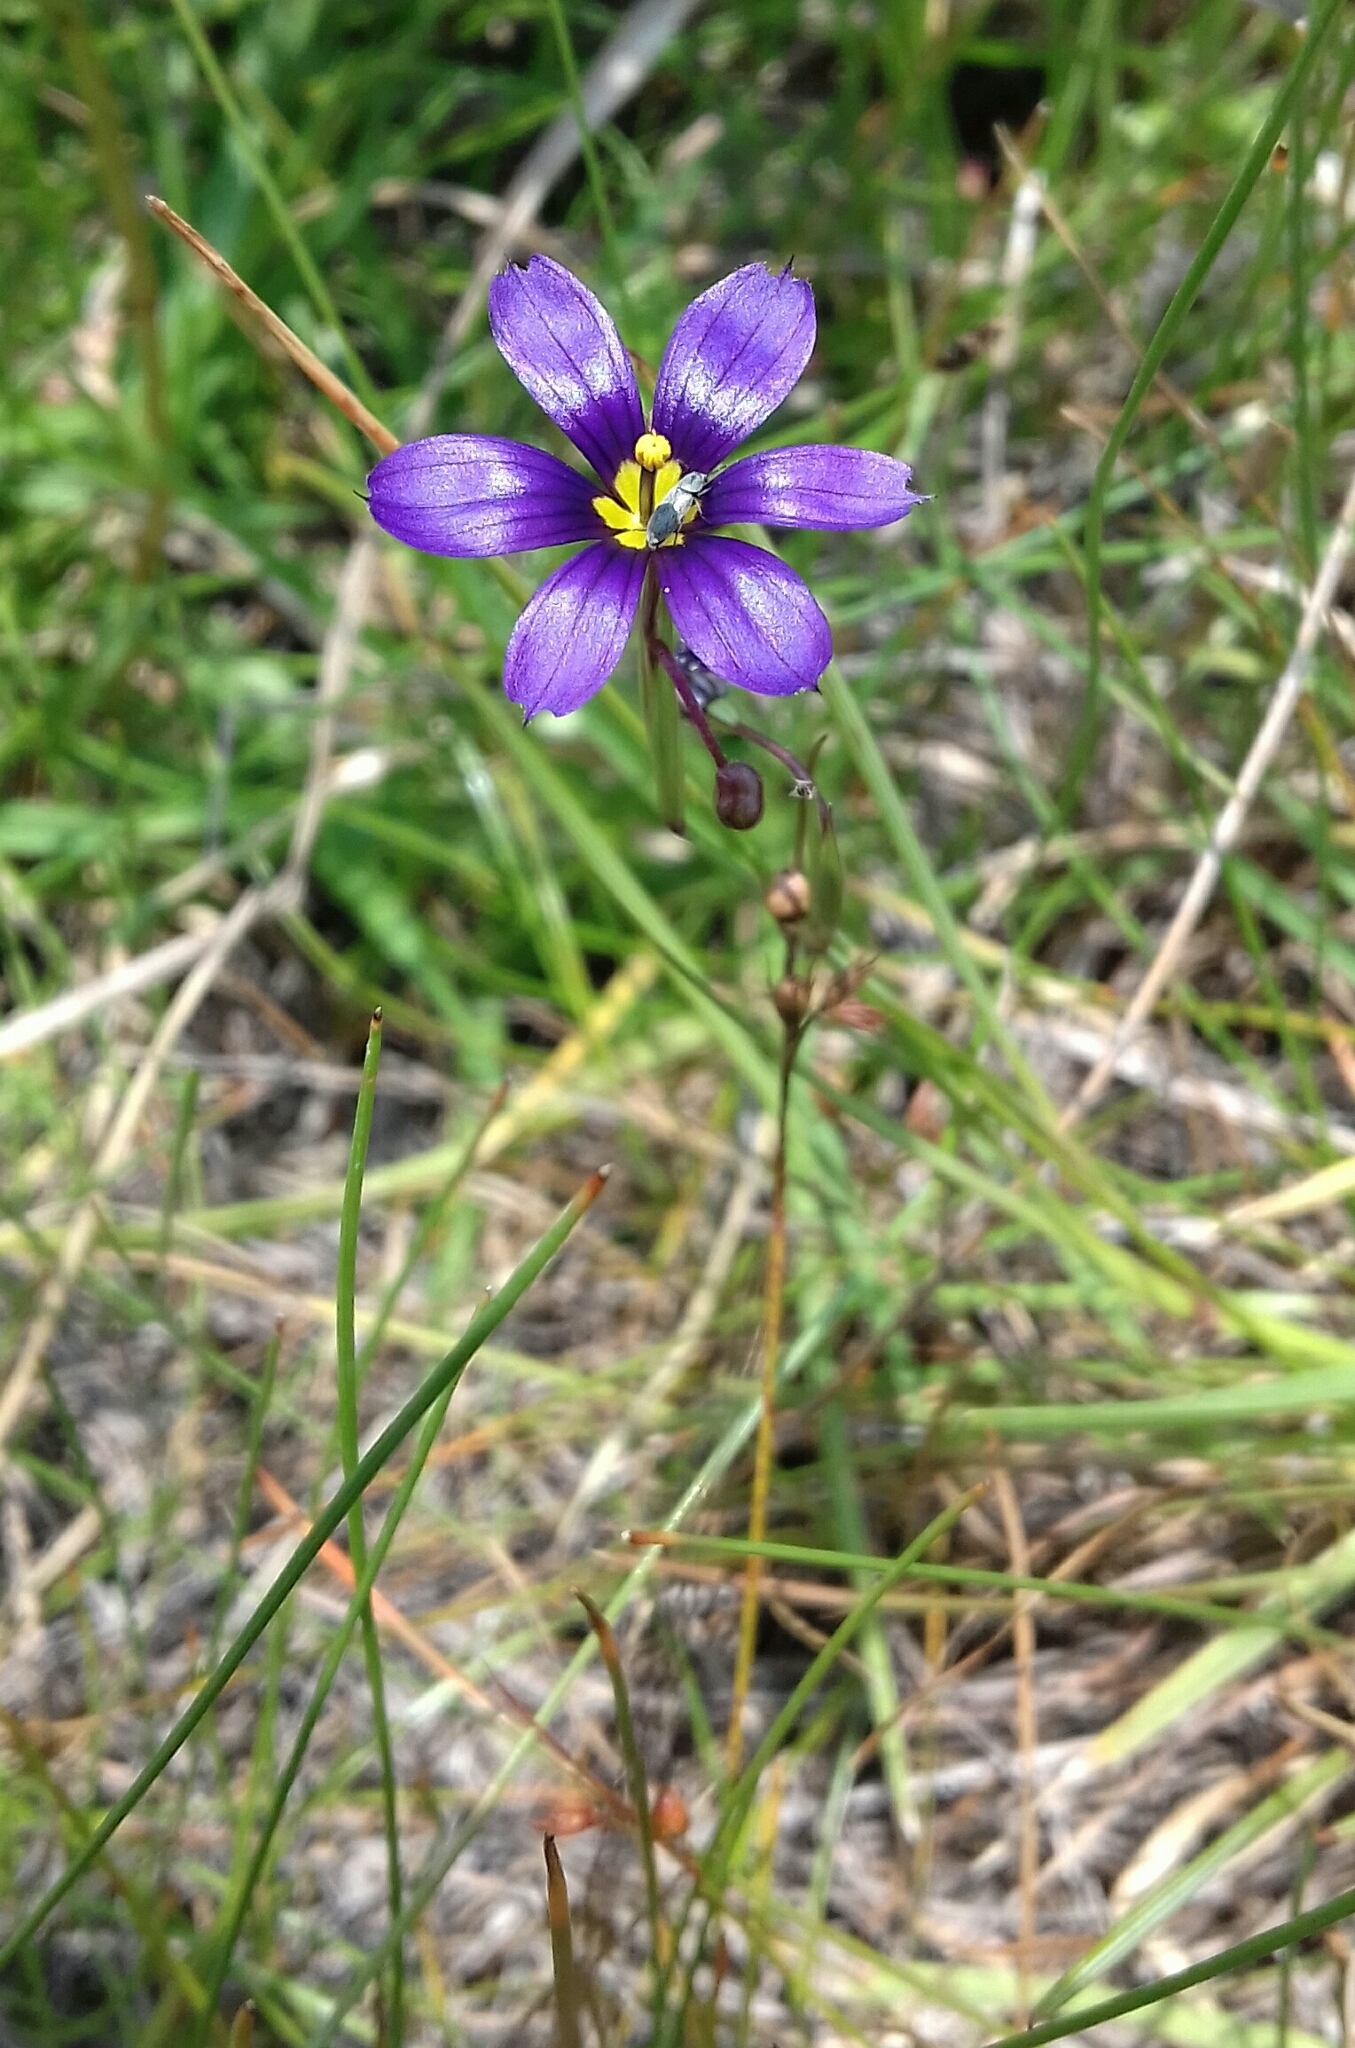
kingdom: Plantae
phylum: Tracheophyta
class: Liliopsida
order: Asparagales
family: Iridaceae
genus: Sisyrinchium
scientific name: Sisyrinchium scabrum
